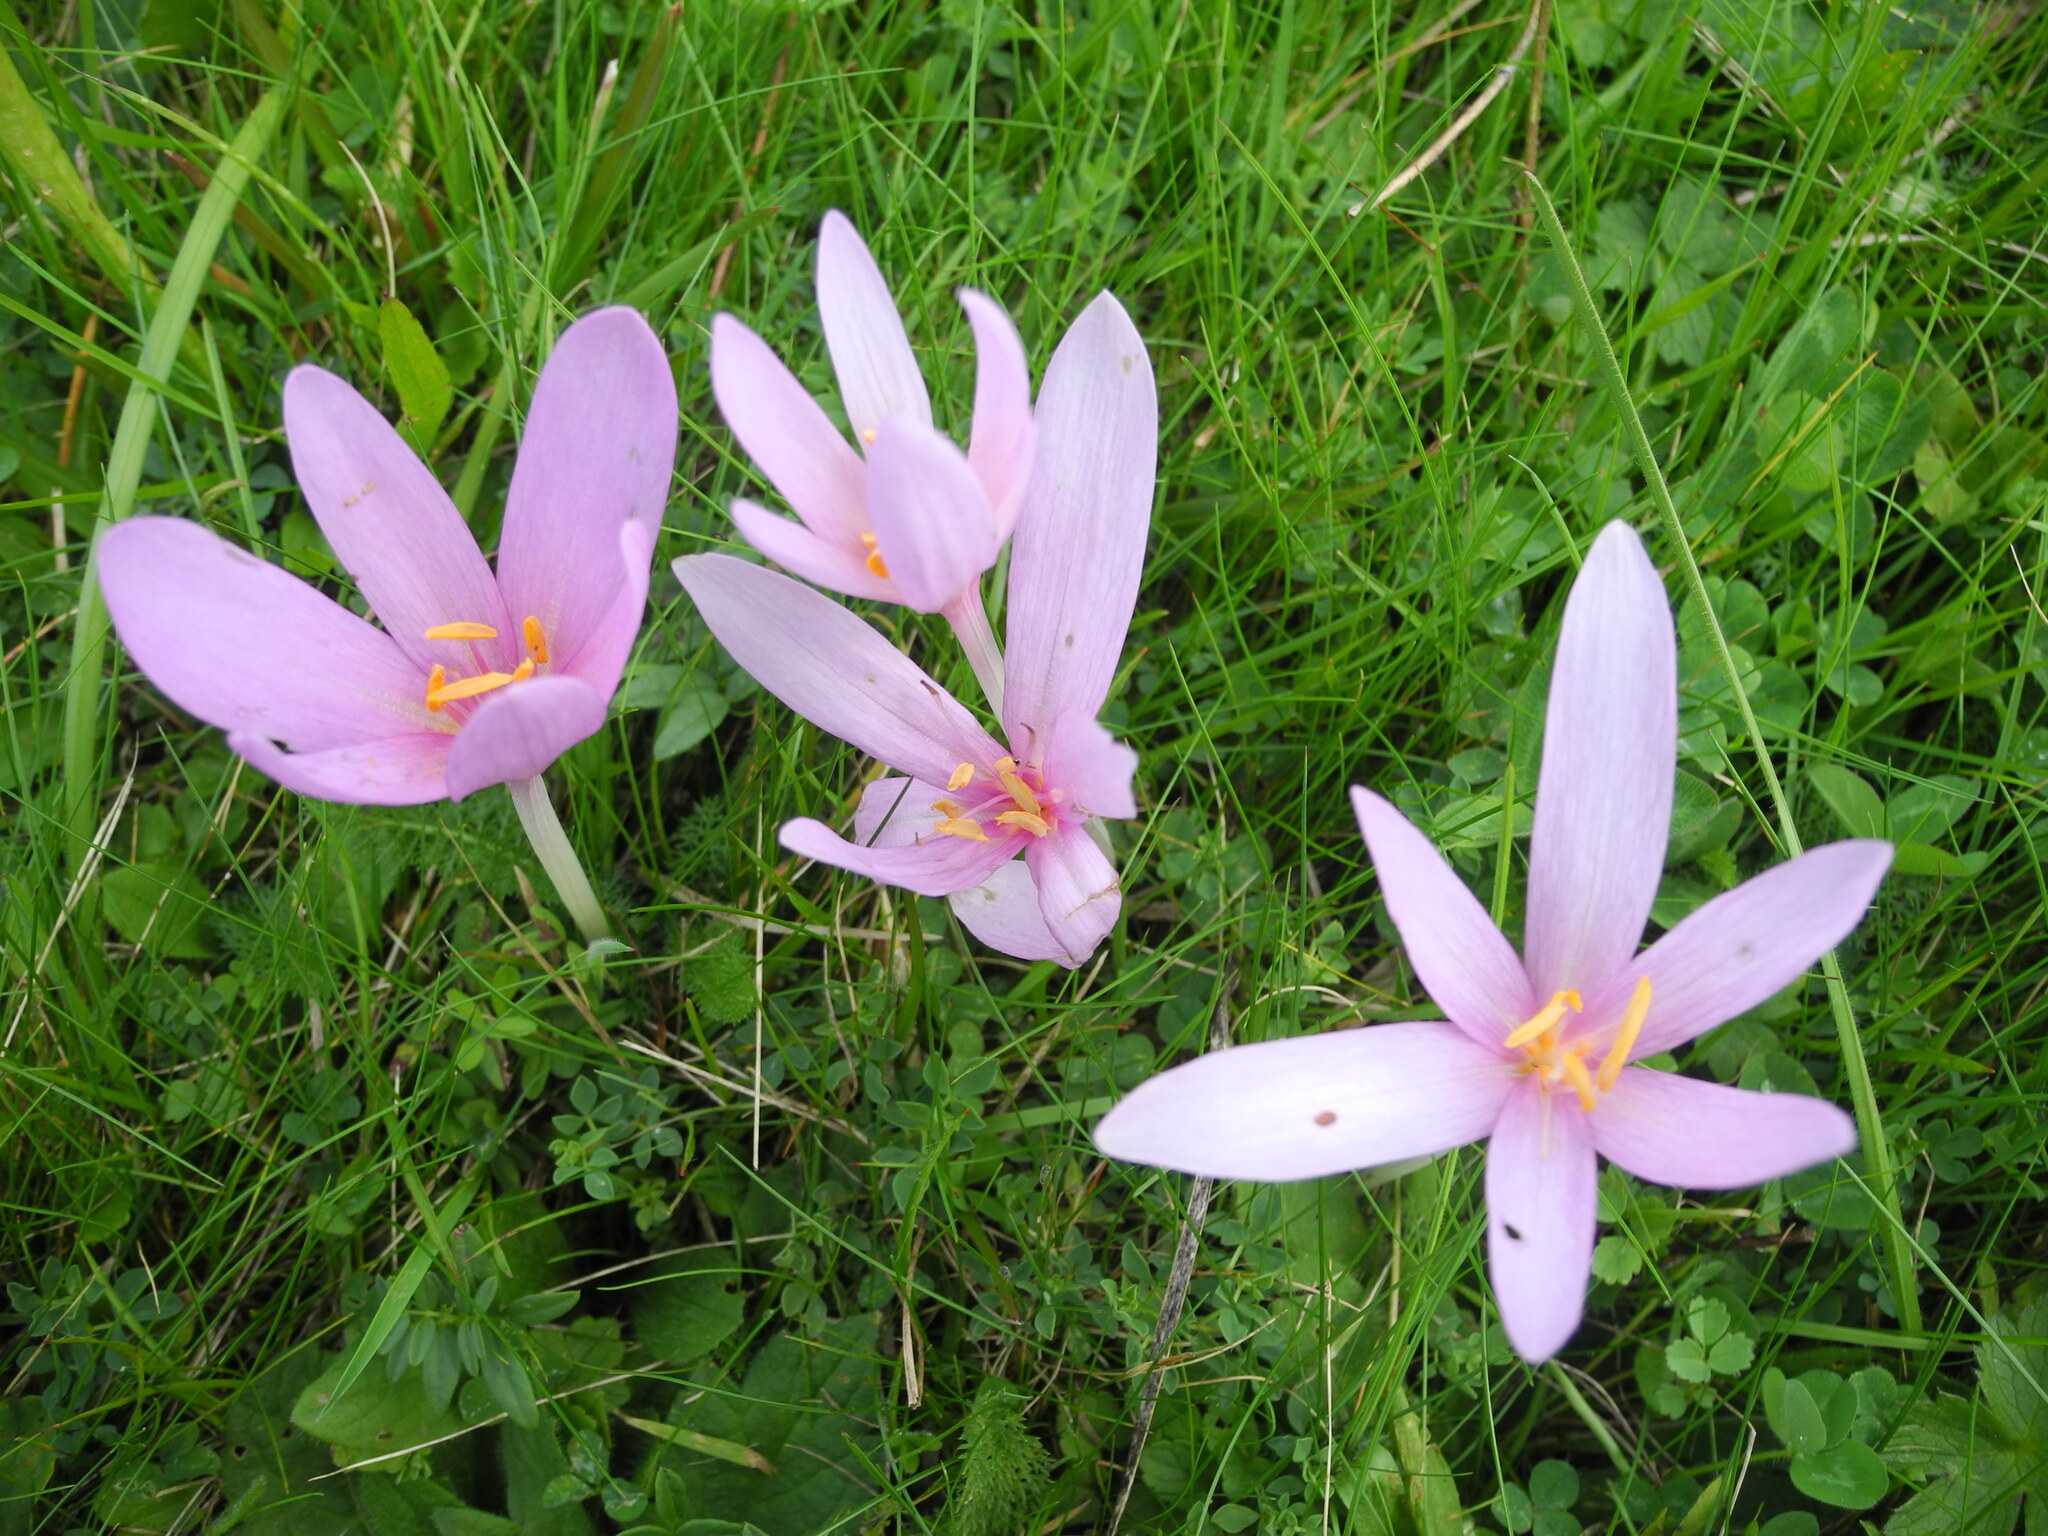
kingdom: Plantae
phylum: Tracheophyta
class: Liliopsida
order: Liliales
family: Colchicaceae
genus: Colchicum
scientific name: Colchicum autumnale
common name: Autumn crocus
